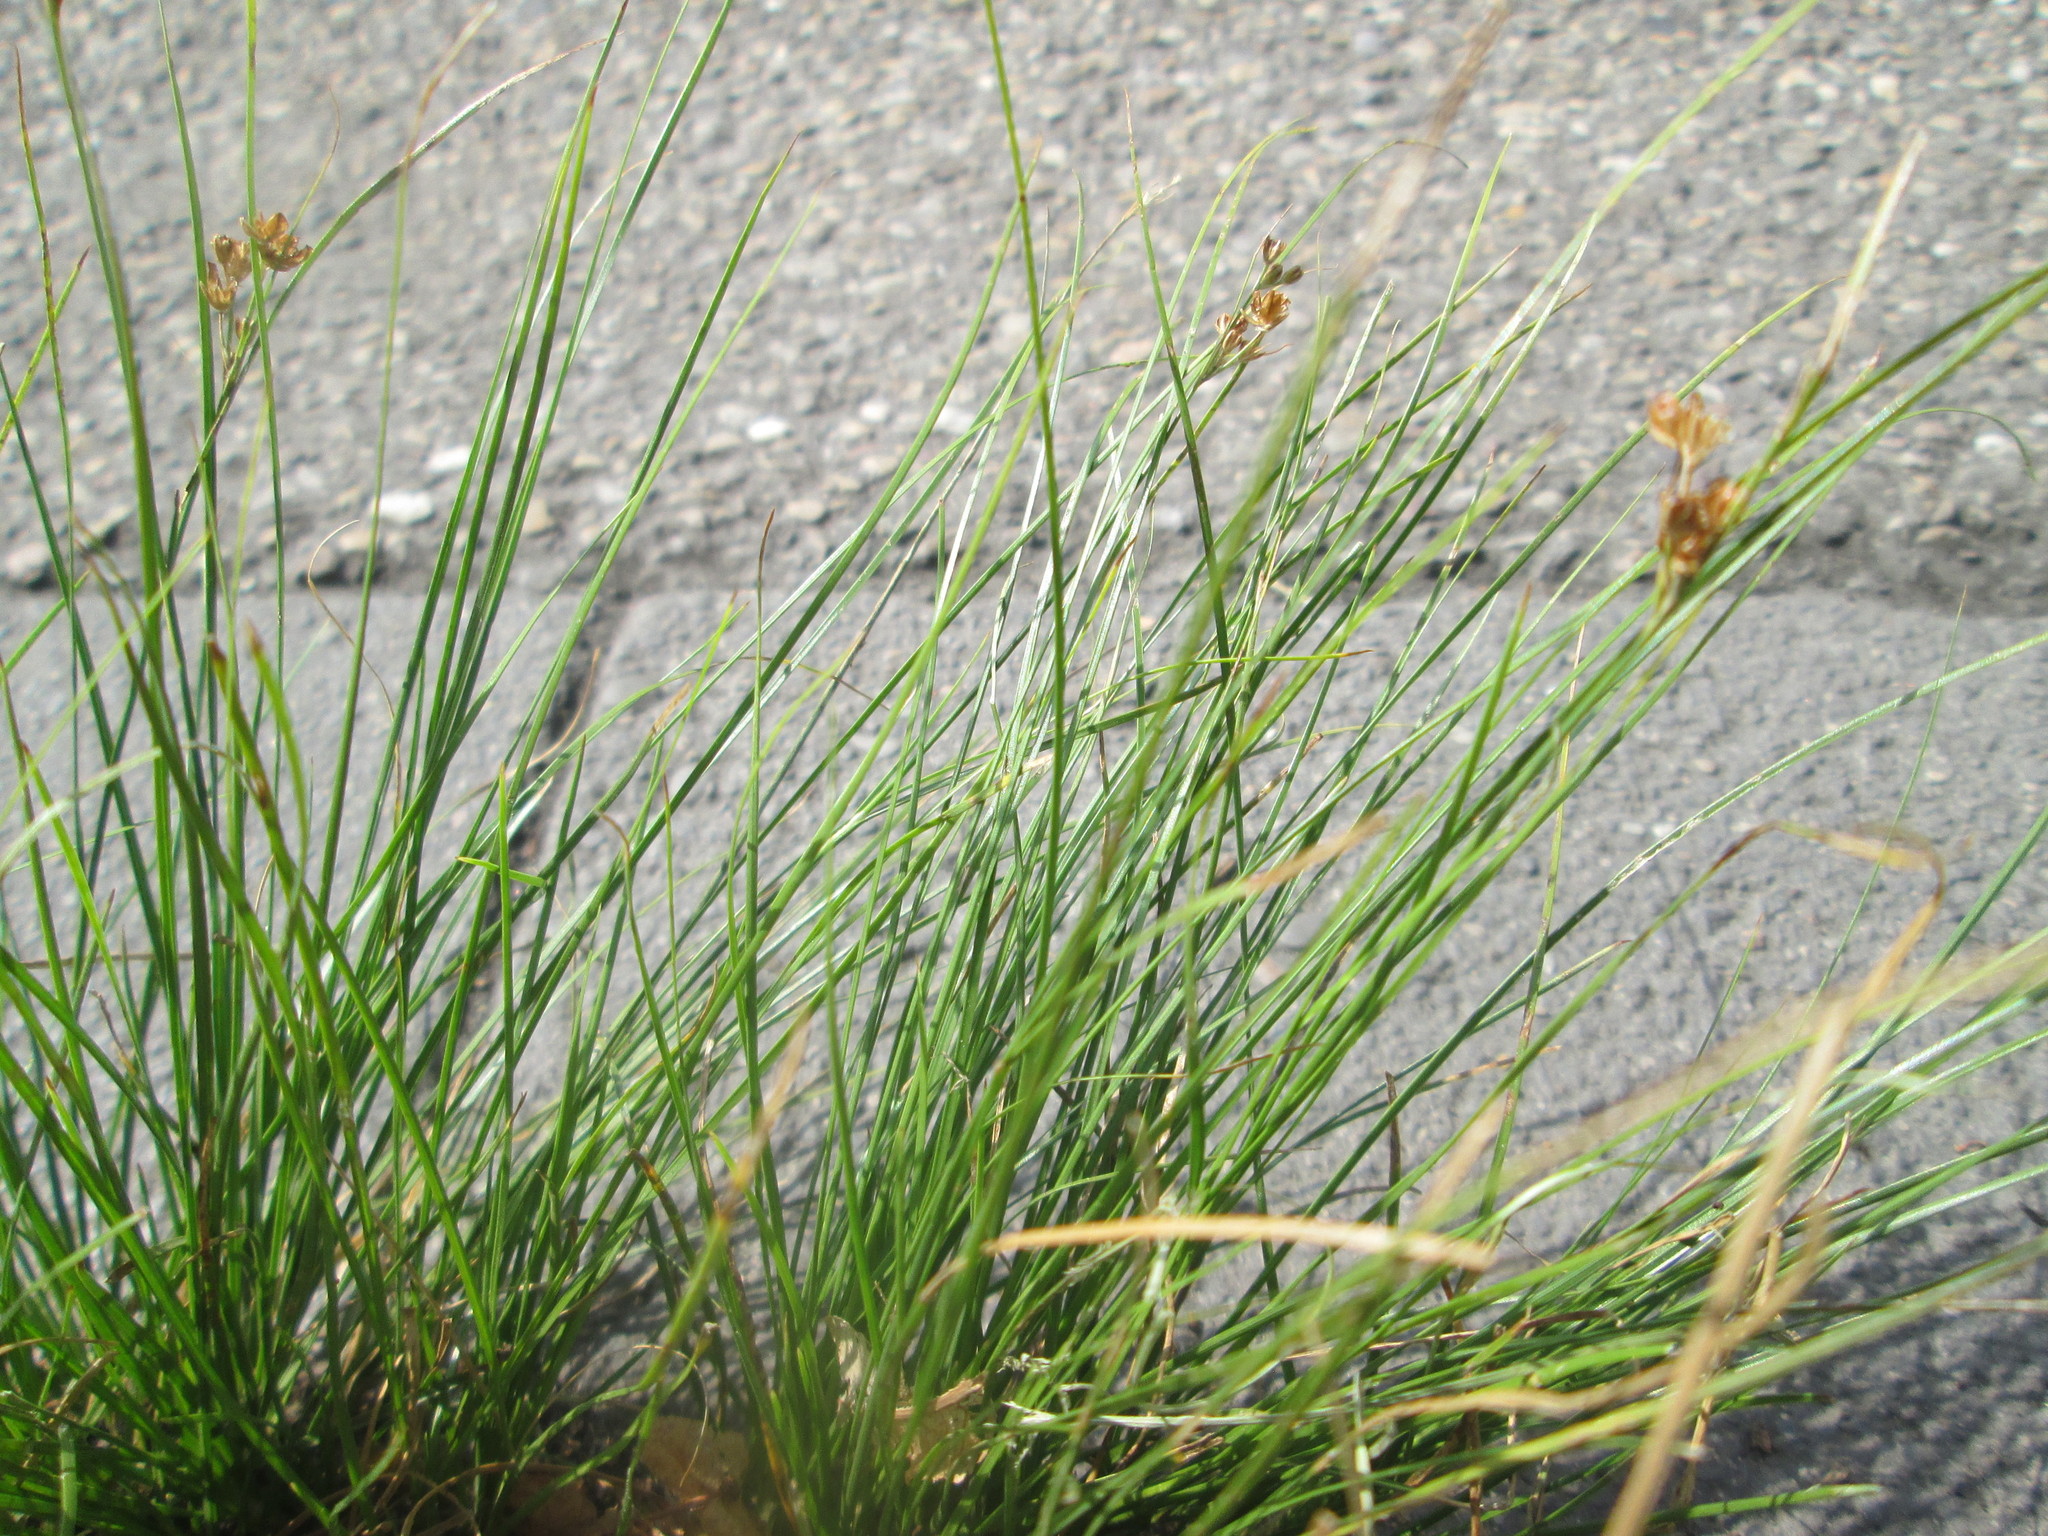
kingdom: Plantae
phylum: Tracheophyta
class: Liliopsida
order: Poales
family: Juncaceae
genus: Juncus
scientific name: Juncus tenuis
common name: Slender rush
